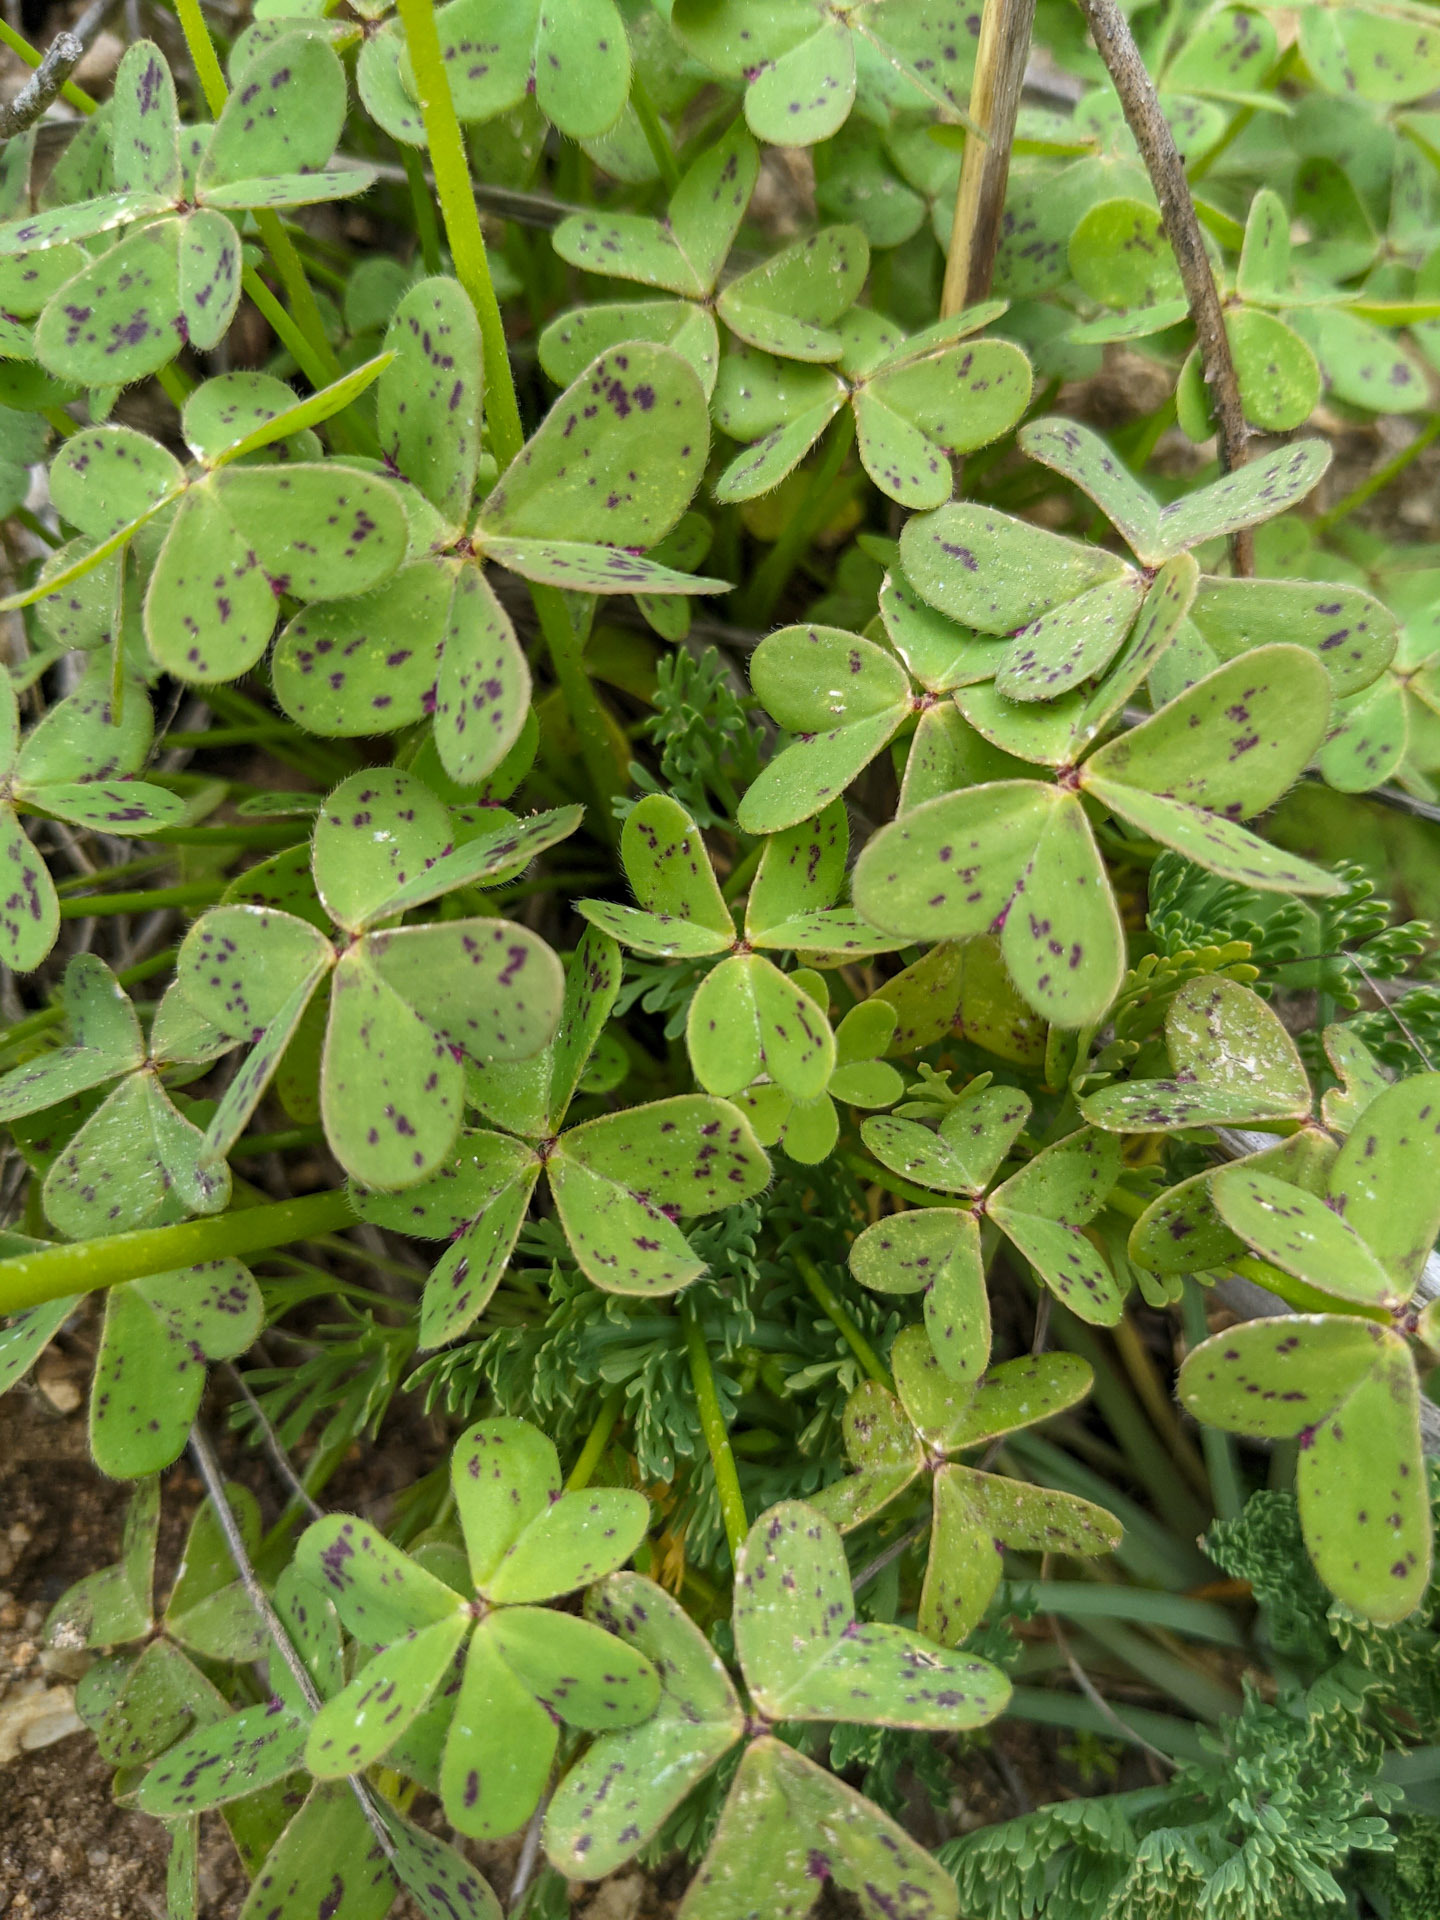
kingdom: Plantae
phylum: Tracheophyta
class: Magnoliopsida
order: Oxalidales
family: Oxalidaceae
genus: Oxalis
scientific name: Oxalis pes-caprae
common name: Bermuda-buttercup
